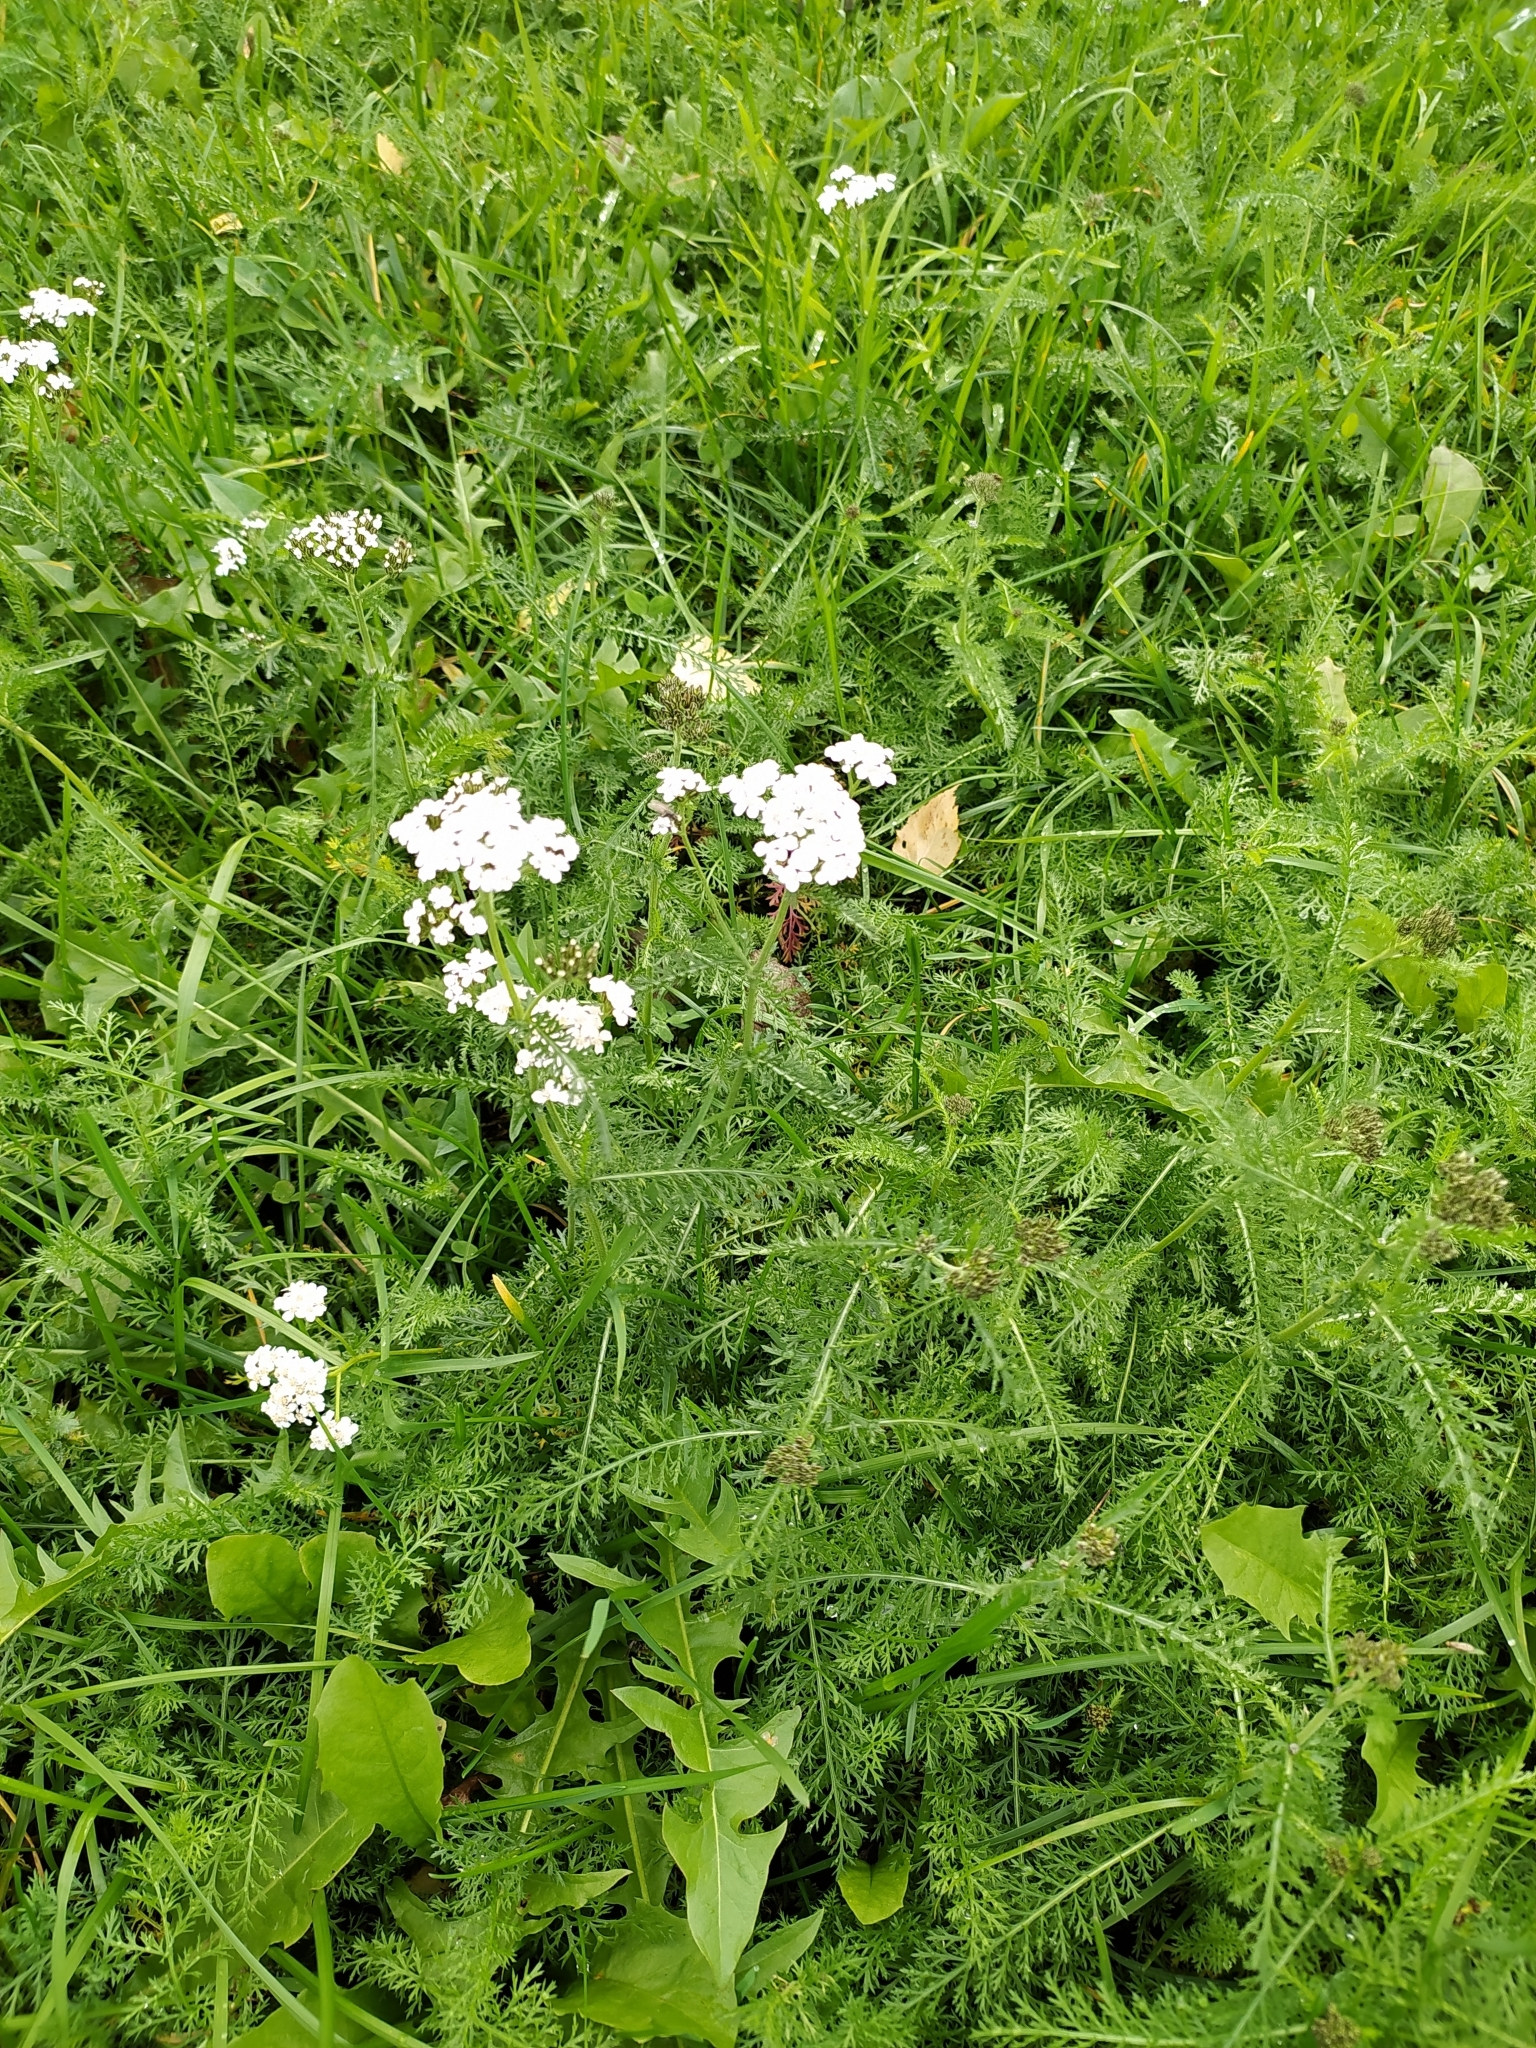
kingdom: Plantae
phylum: Tracheophyta
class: Magnoliopsida
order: Asterales
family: Asteraceae
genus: Achillea
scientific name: Achillea millefolium
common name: Yarrow
